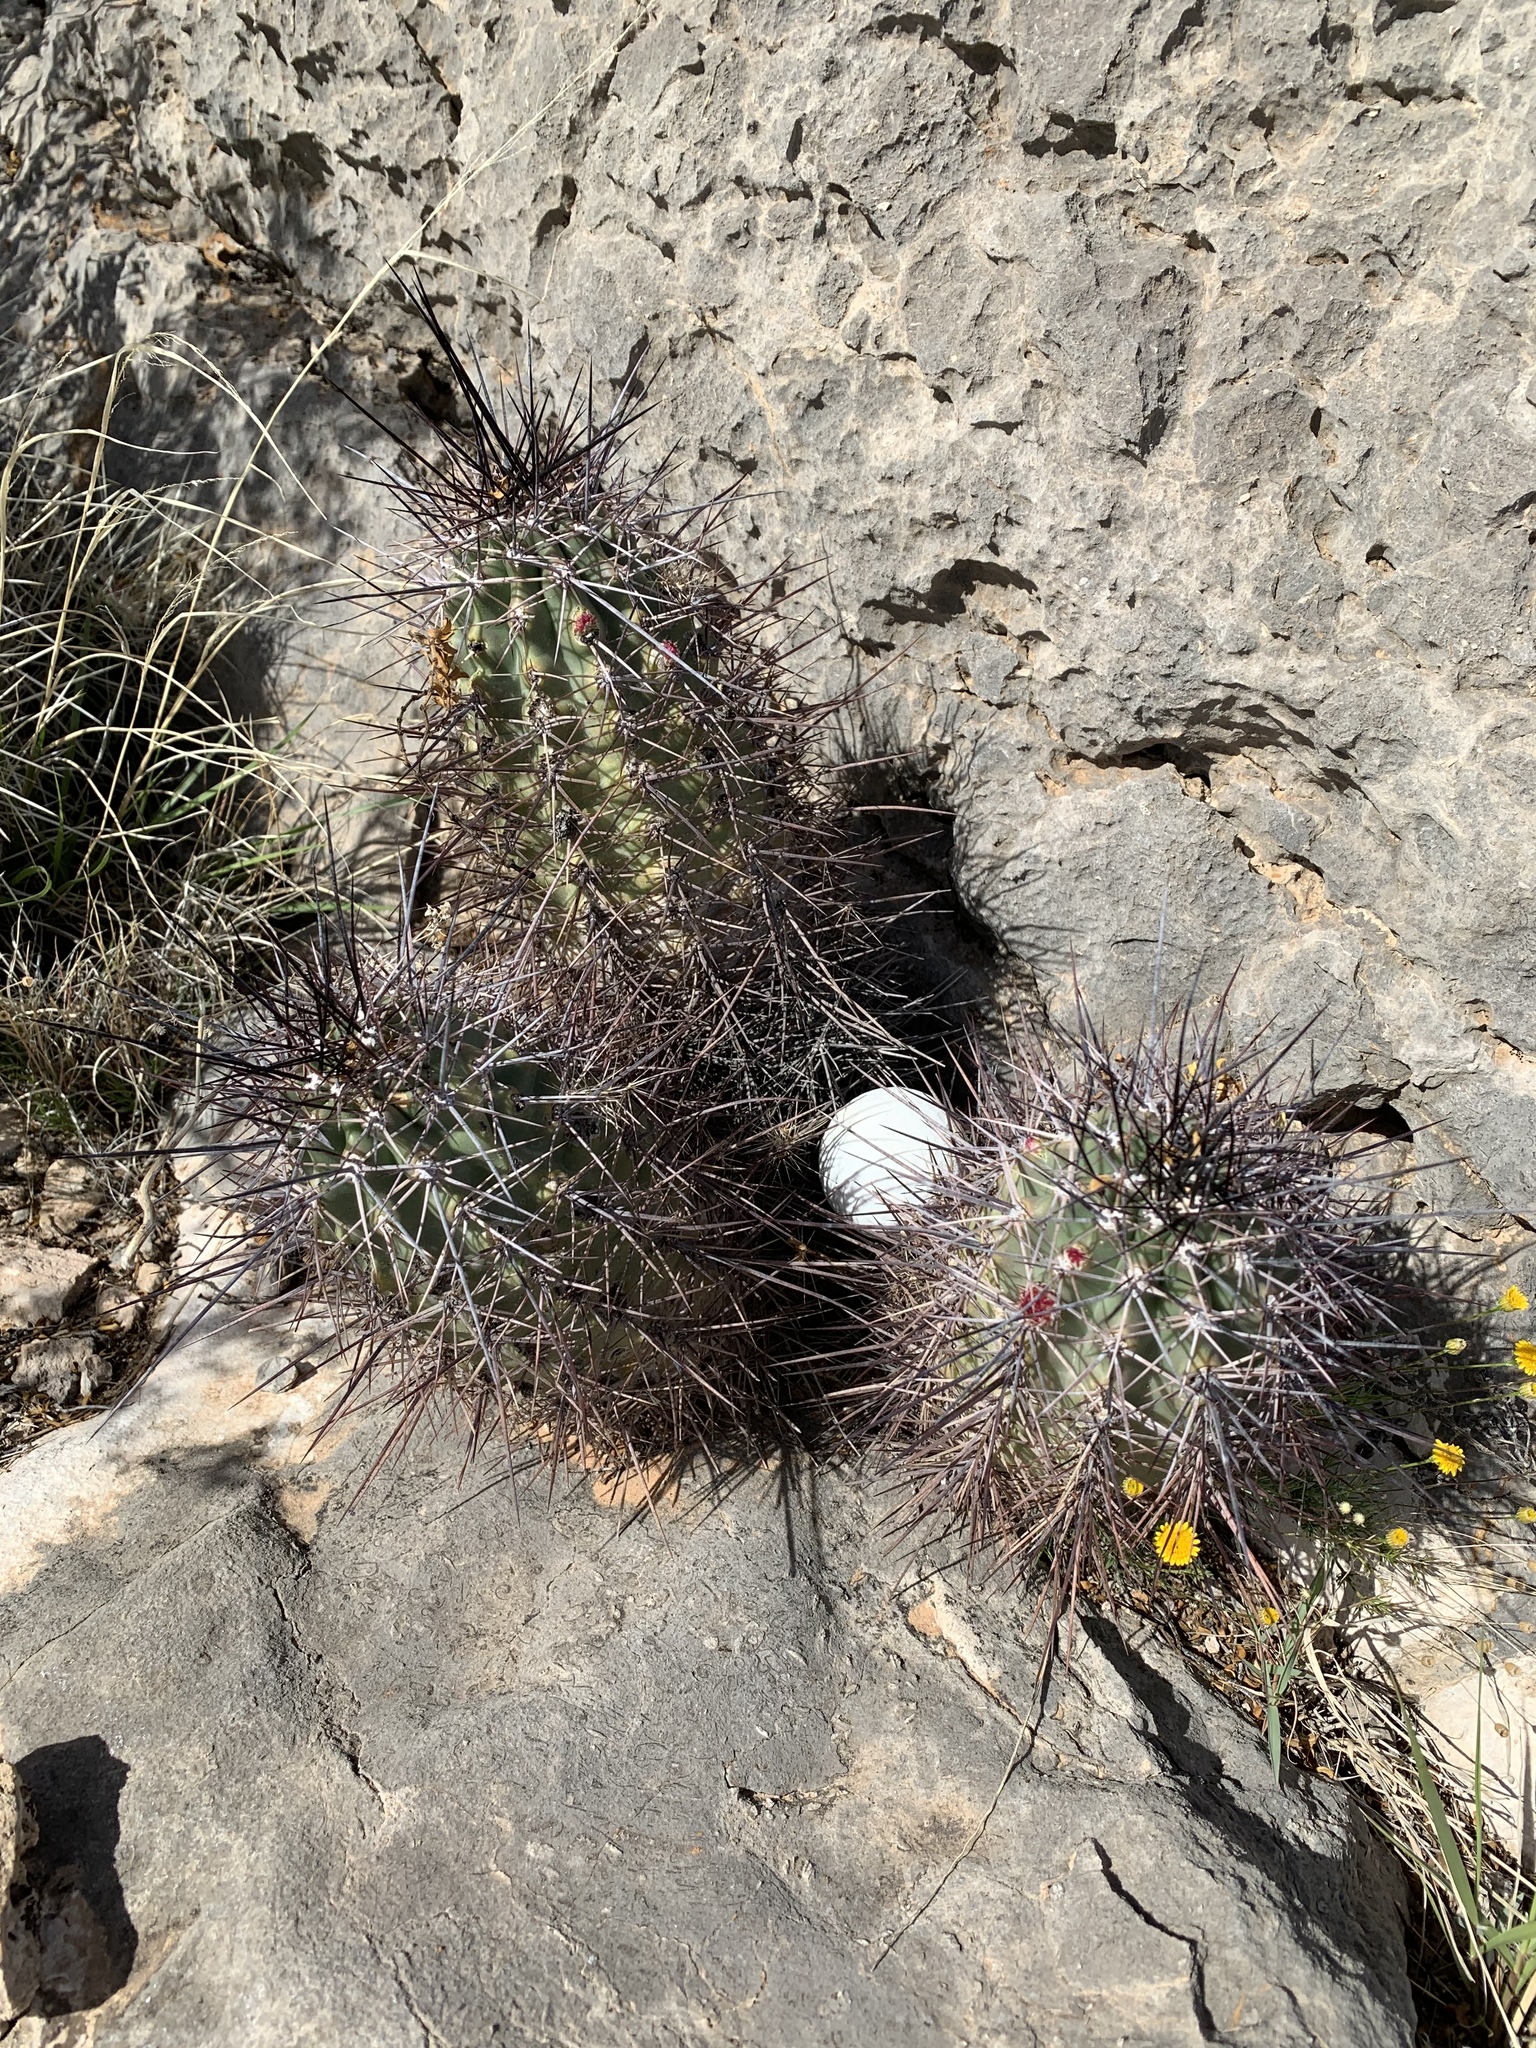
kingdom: Plantae
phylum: Tracheophyta
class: Magnoliopsida
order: Caryophyllales
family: Cactaceae
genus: Echinocereus
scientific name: Echinocereus coccineus
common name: Scarlet hedgehog cactus
